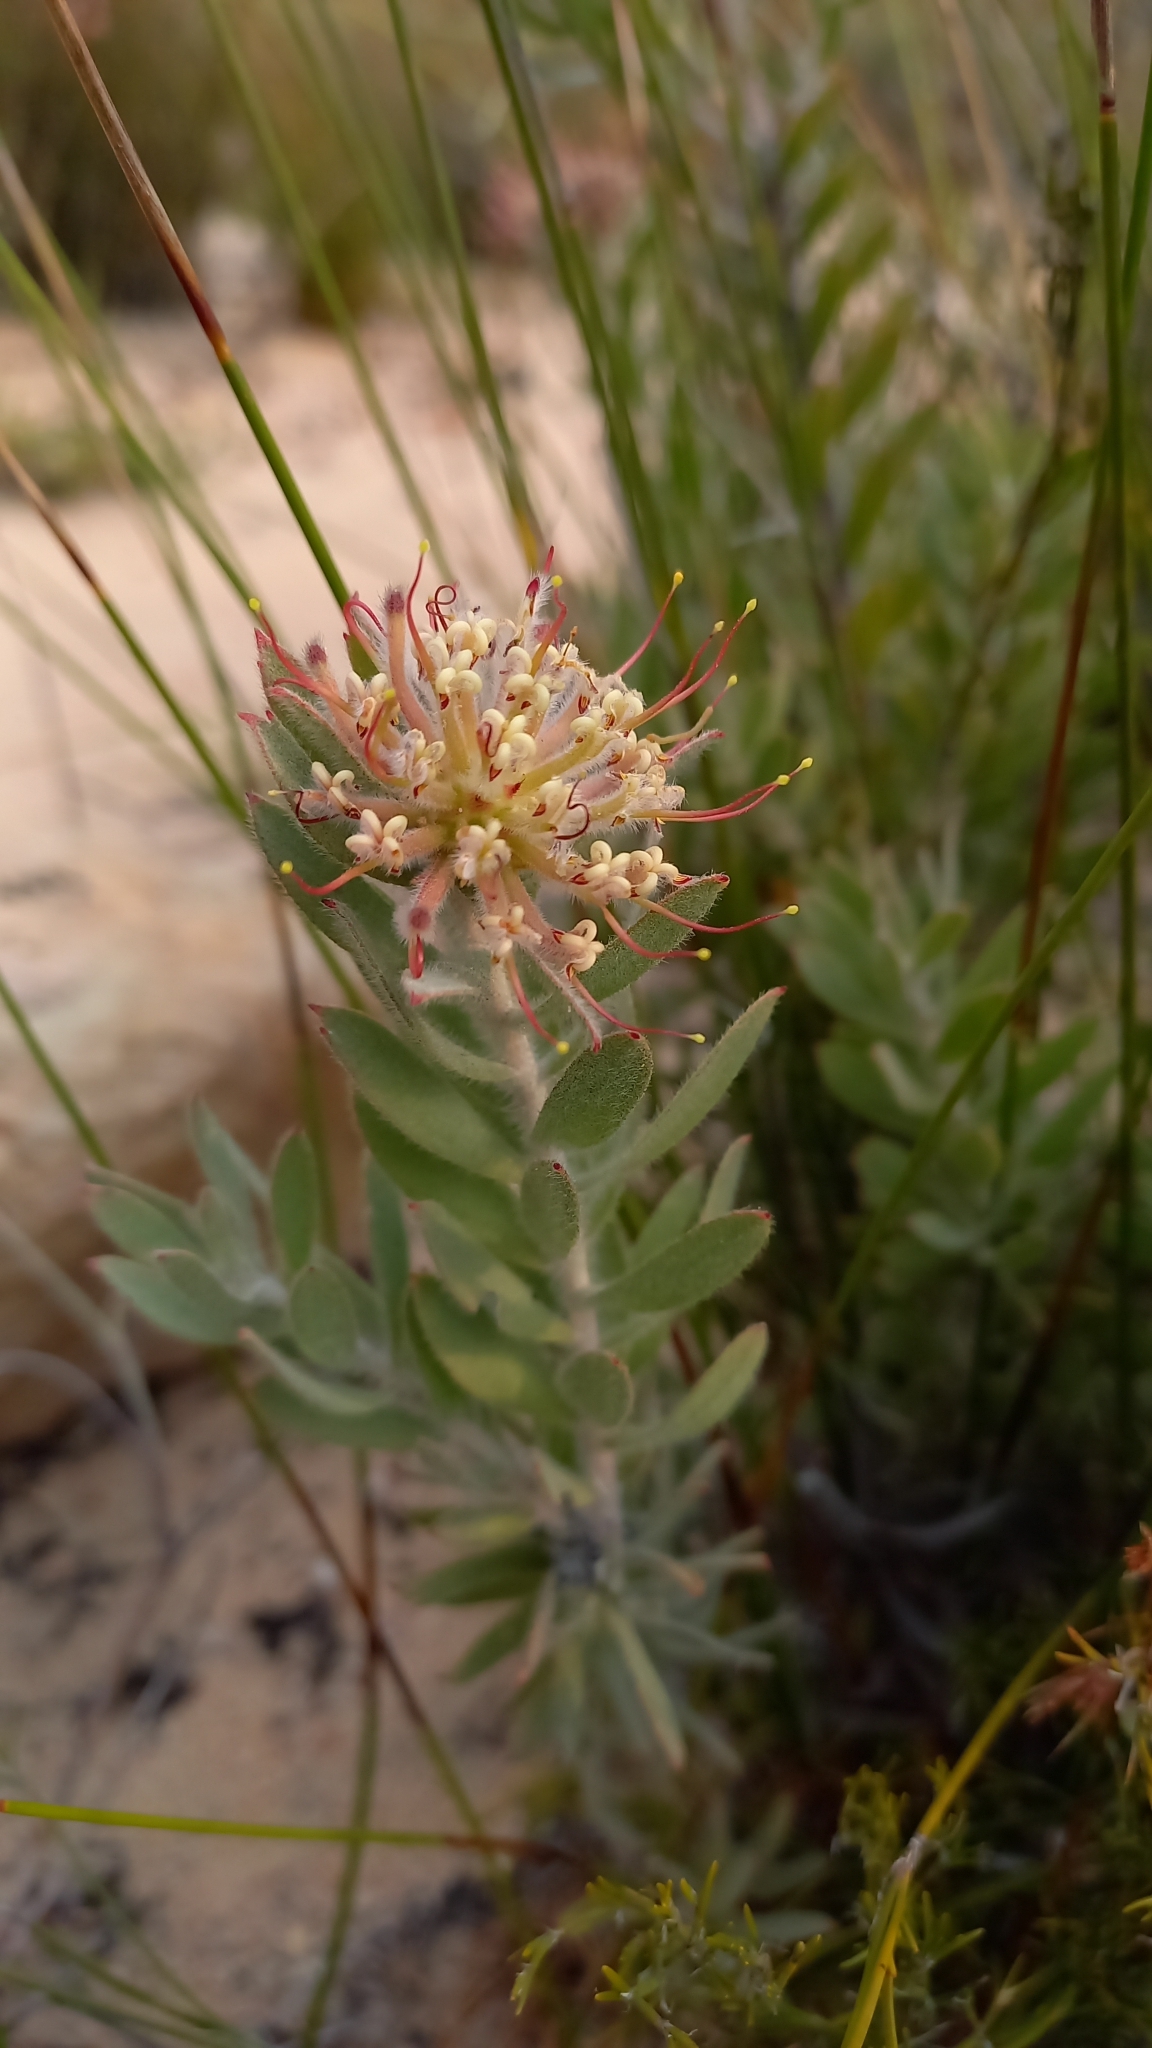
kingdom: Plantae
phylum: Tracheophyta
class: Magnoliopsida
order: Proteales
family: Proteaceae
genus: Leucospermum
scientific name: Leucospermum calligerum
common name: Arid pincushion
